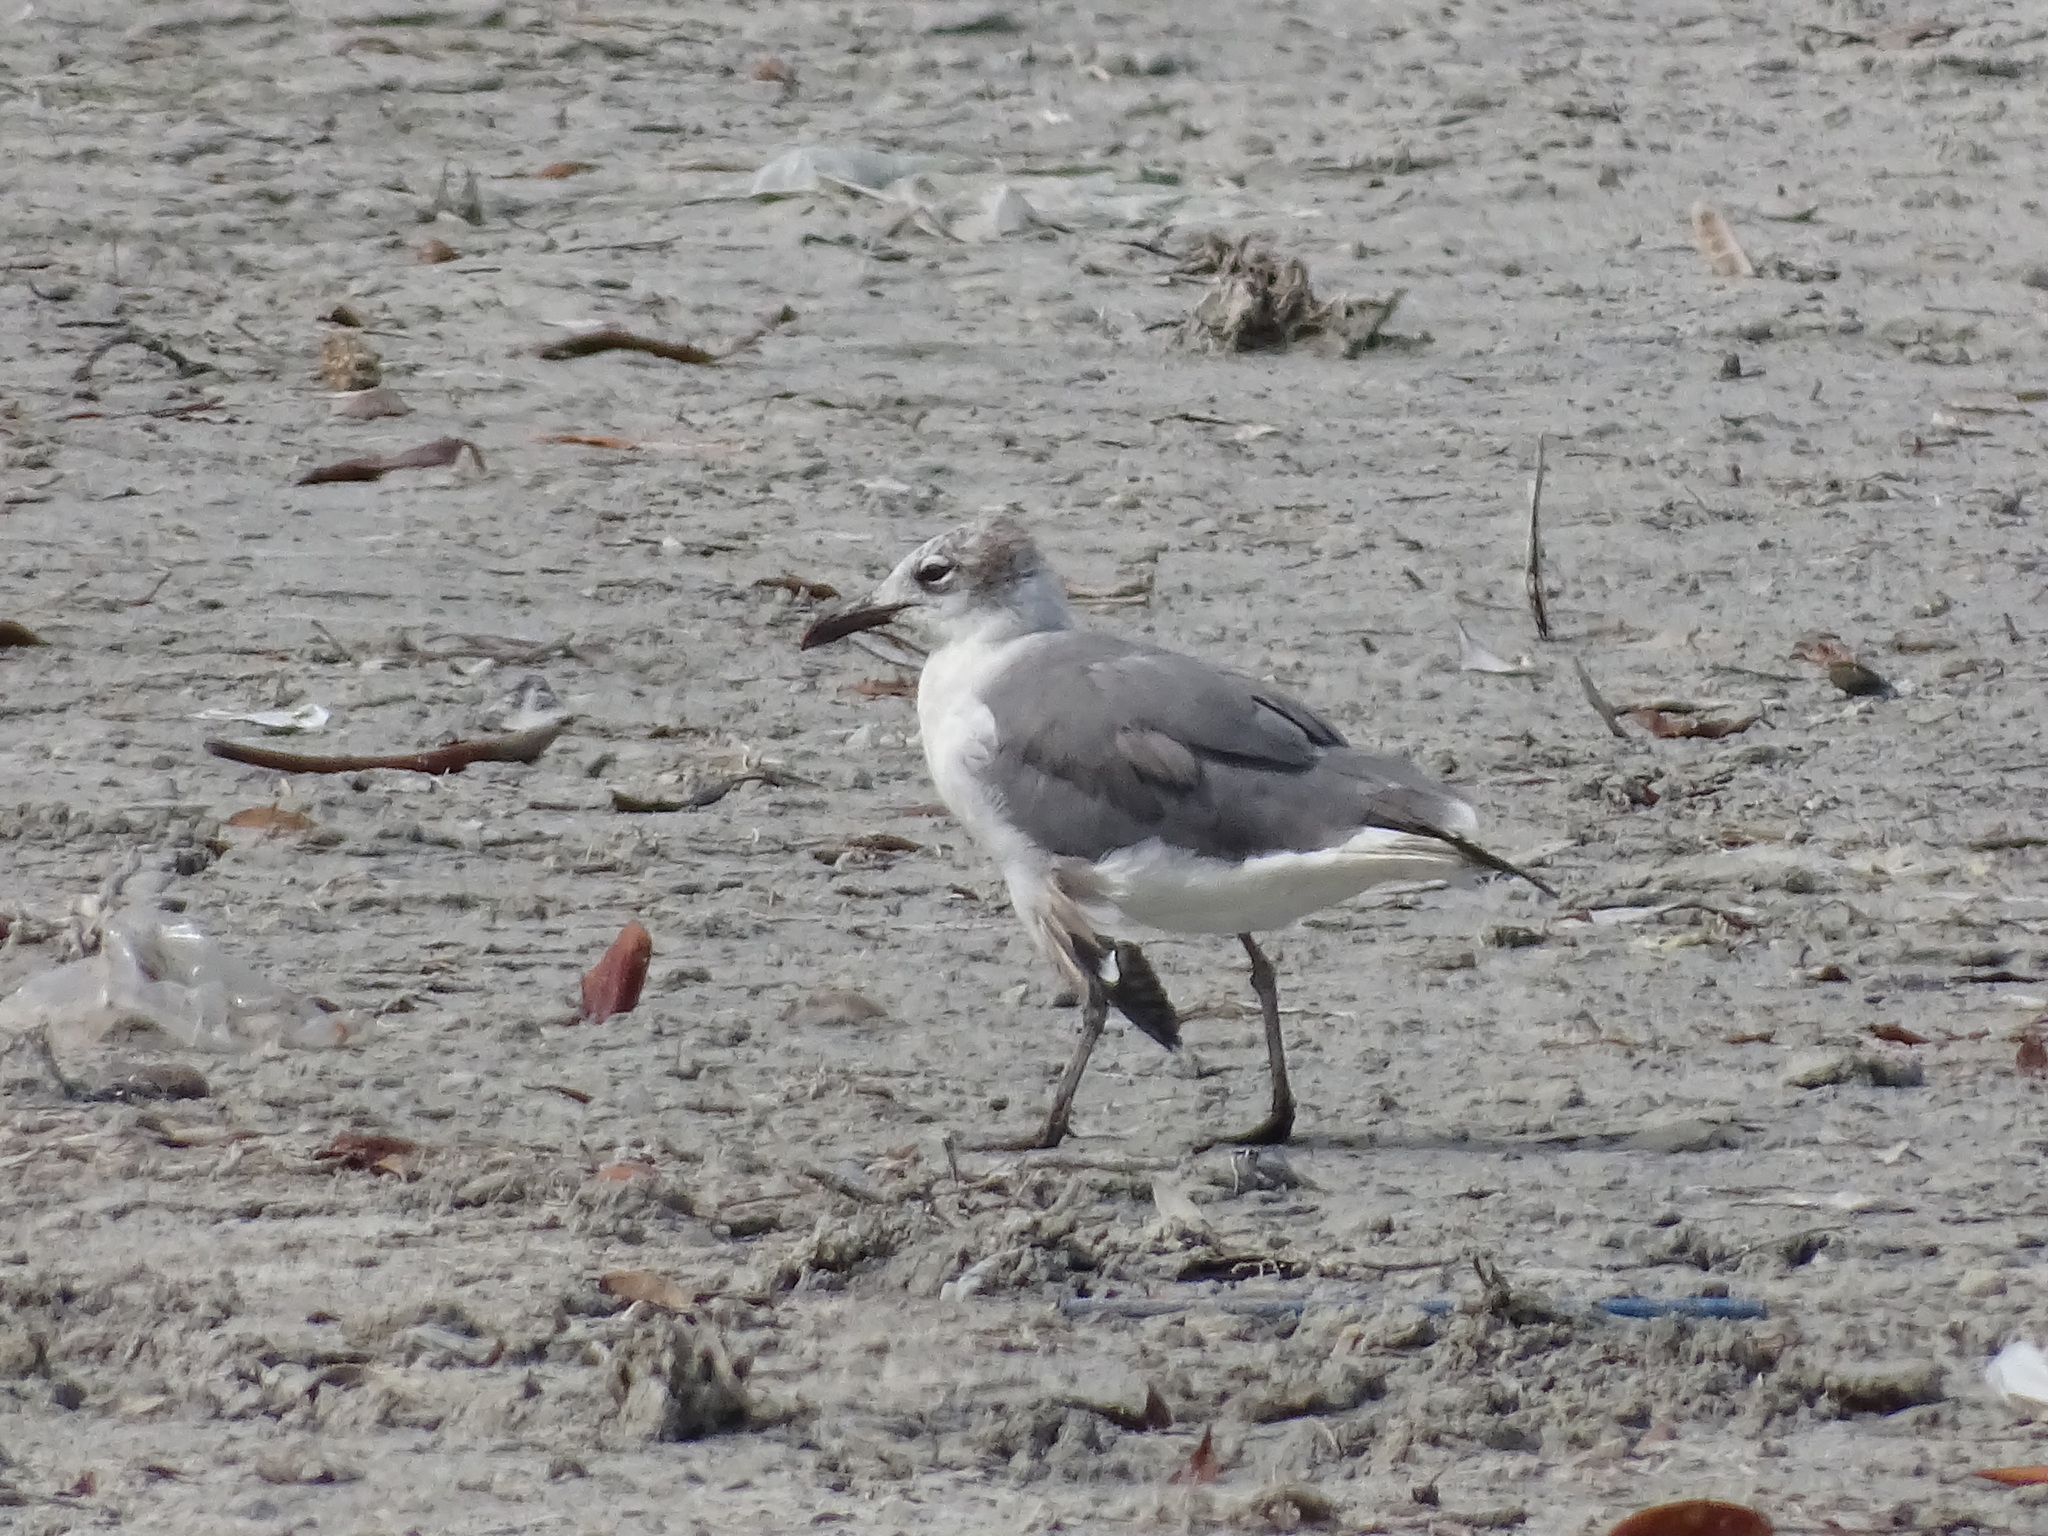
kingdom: Animalia
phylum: Chordata
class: Aves
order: Charadriiformes
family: Laridae
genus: Leucophaeus
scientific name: Leucophaeus atricilla
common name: Laughing gull
